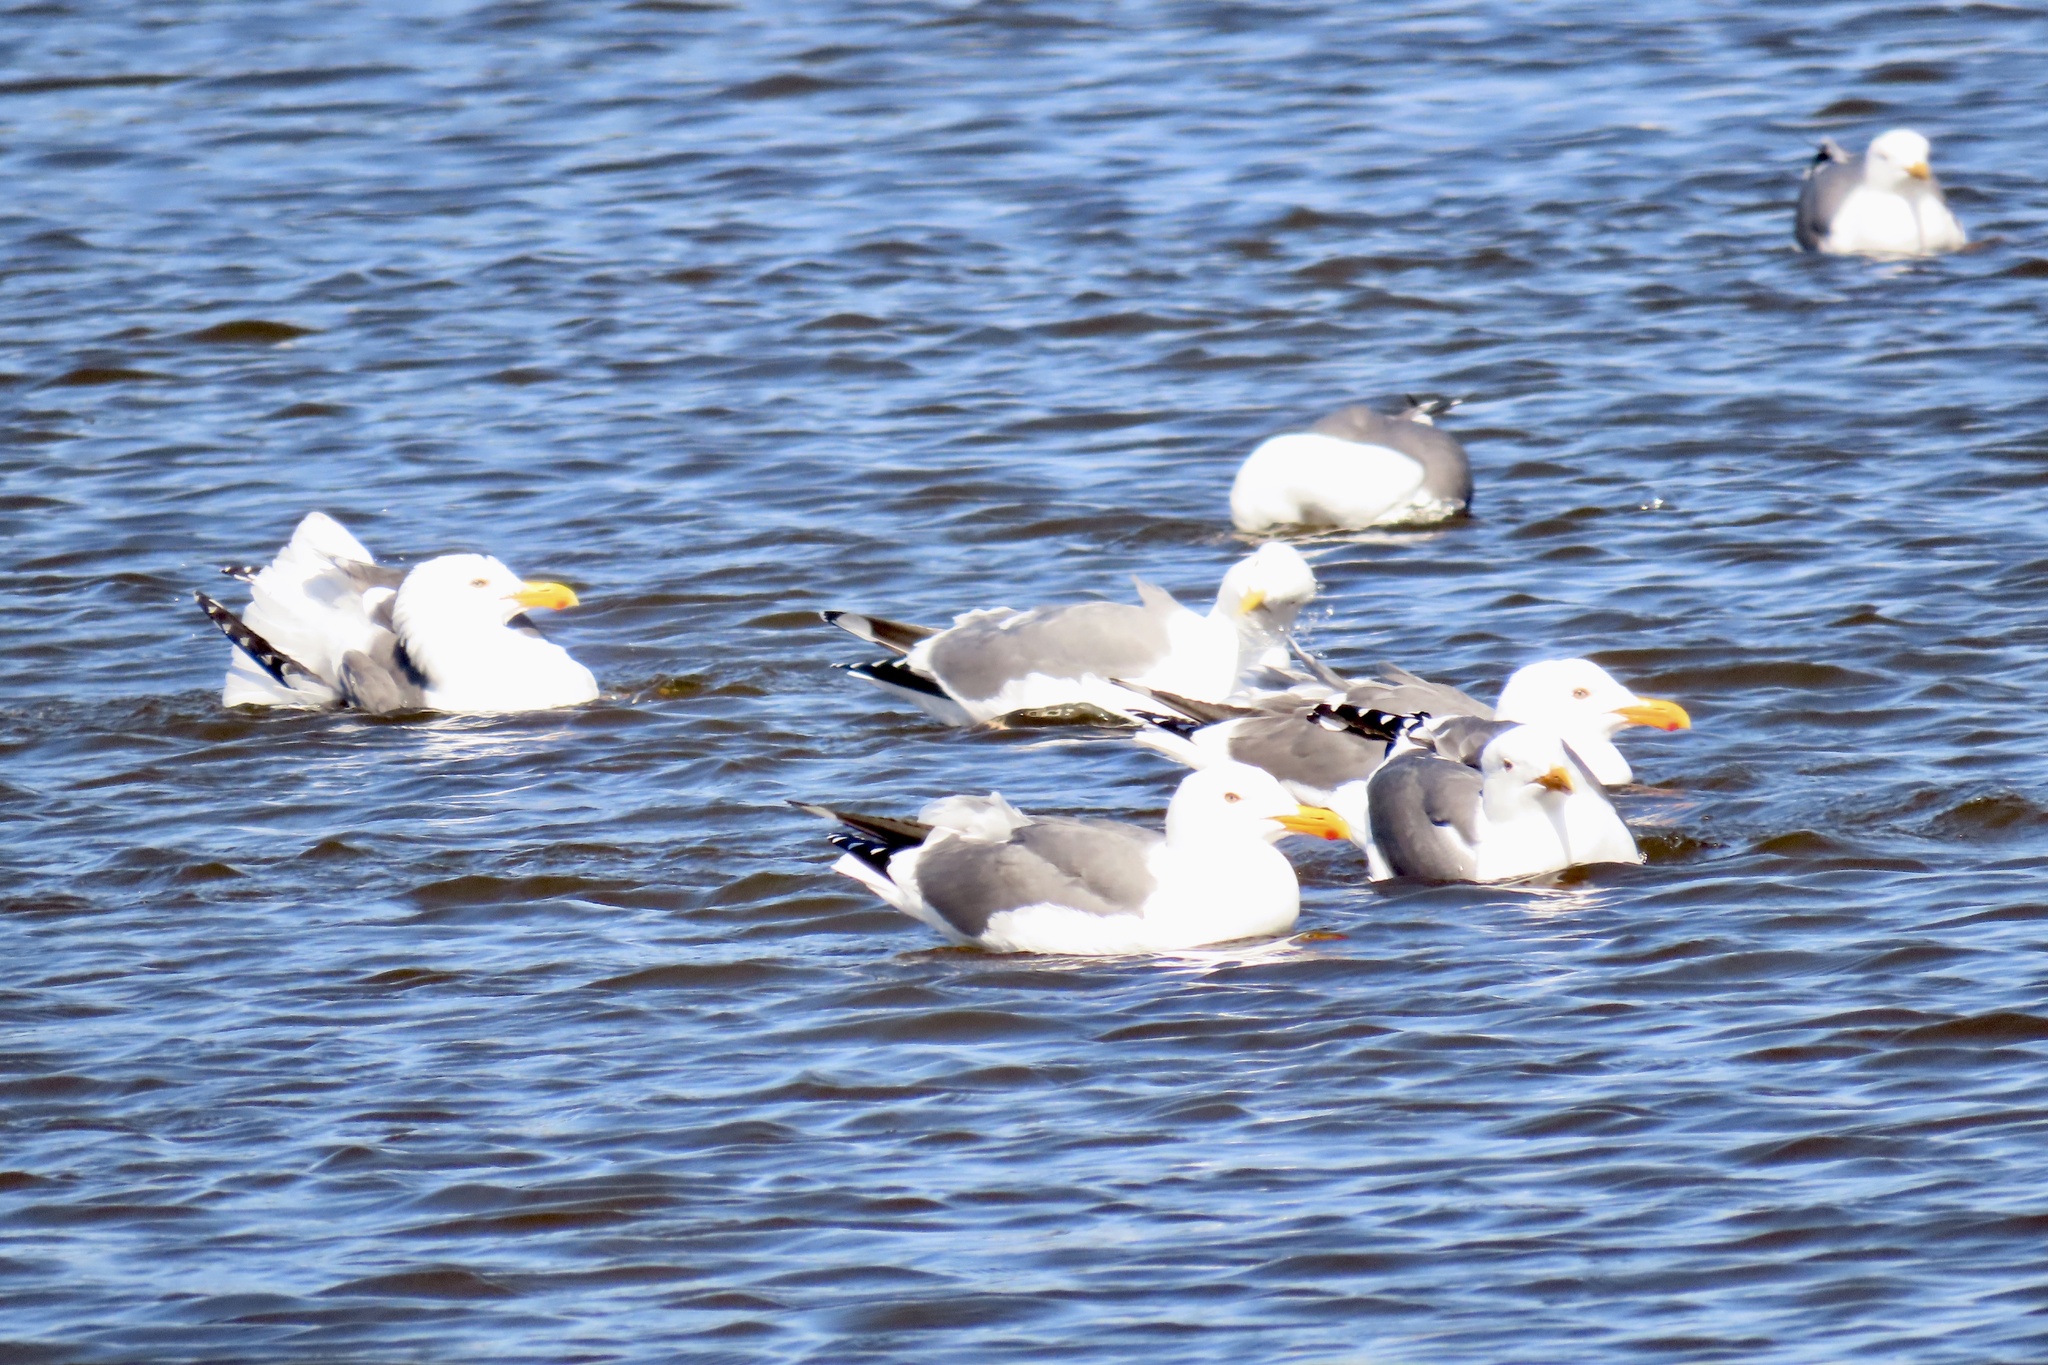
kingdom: Animalia
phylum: Chordata
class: Aves
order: Charadriiformes
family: Laridae
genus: Larus
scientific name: Larus occidentalis
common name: Western gull
